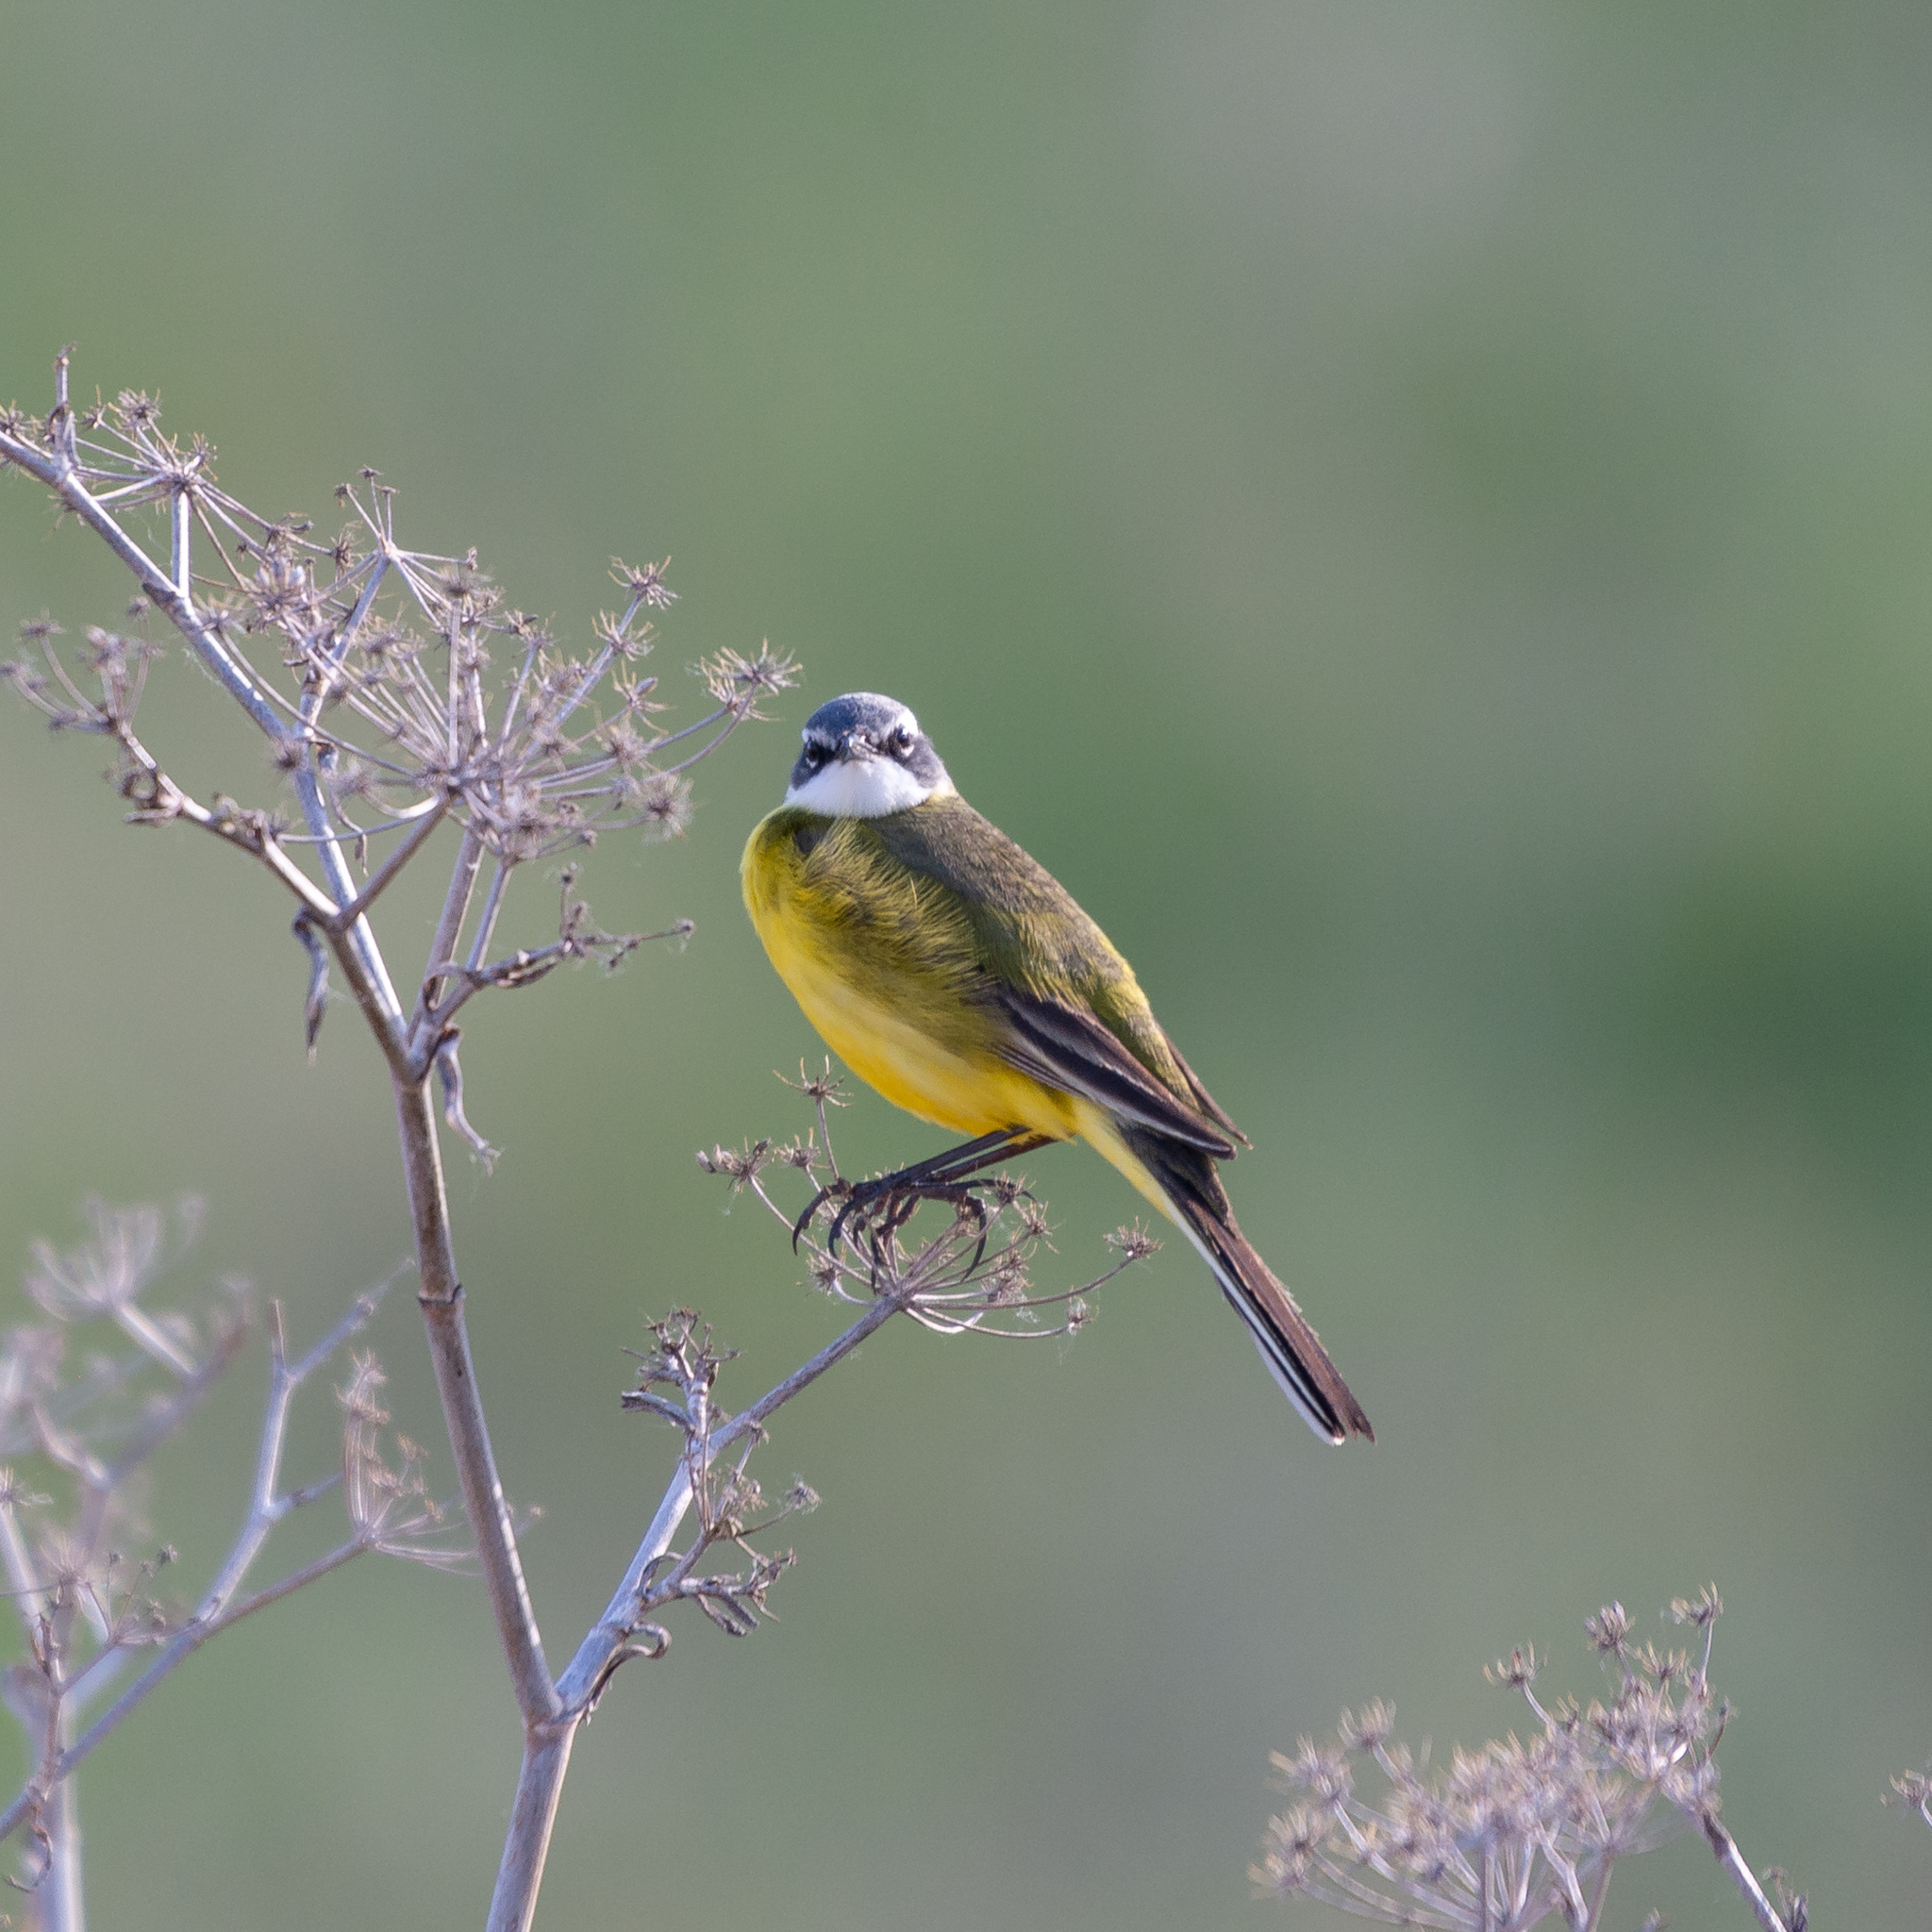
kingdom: Animalia
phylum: Chordata
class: Aves
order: Passeriformes
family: Motacillidae
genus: Motacilla
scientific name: Motacilla flava
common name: Western yellow wagtail
